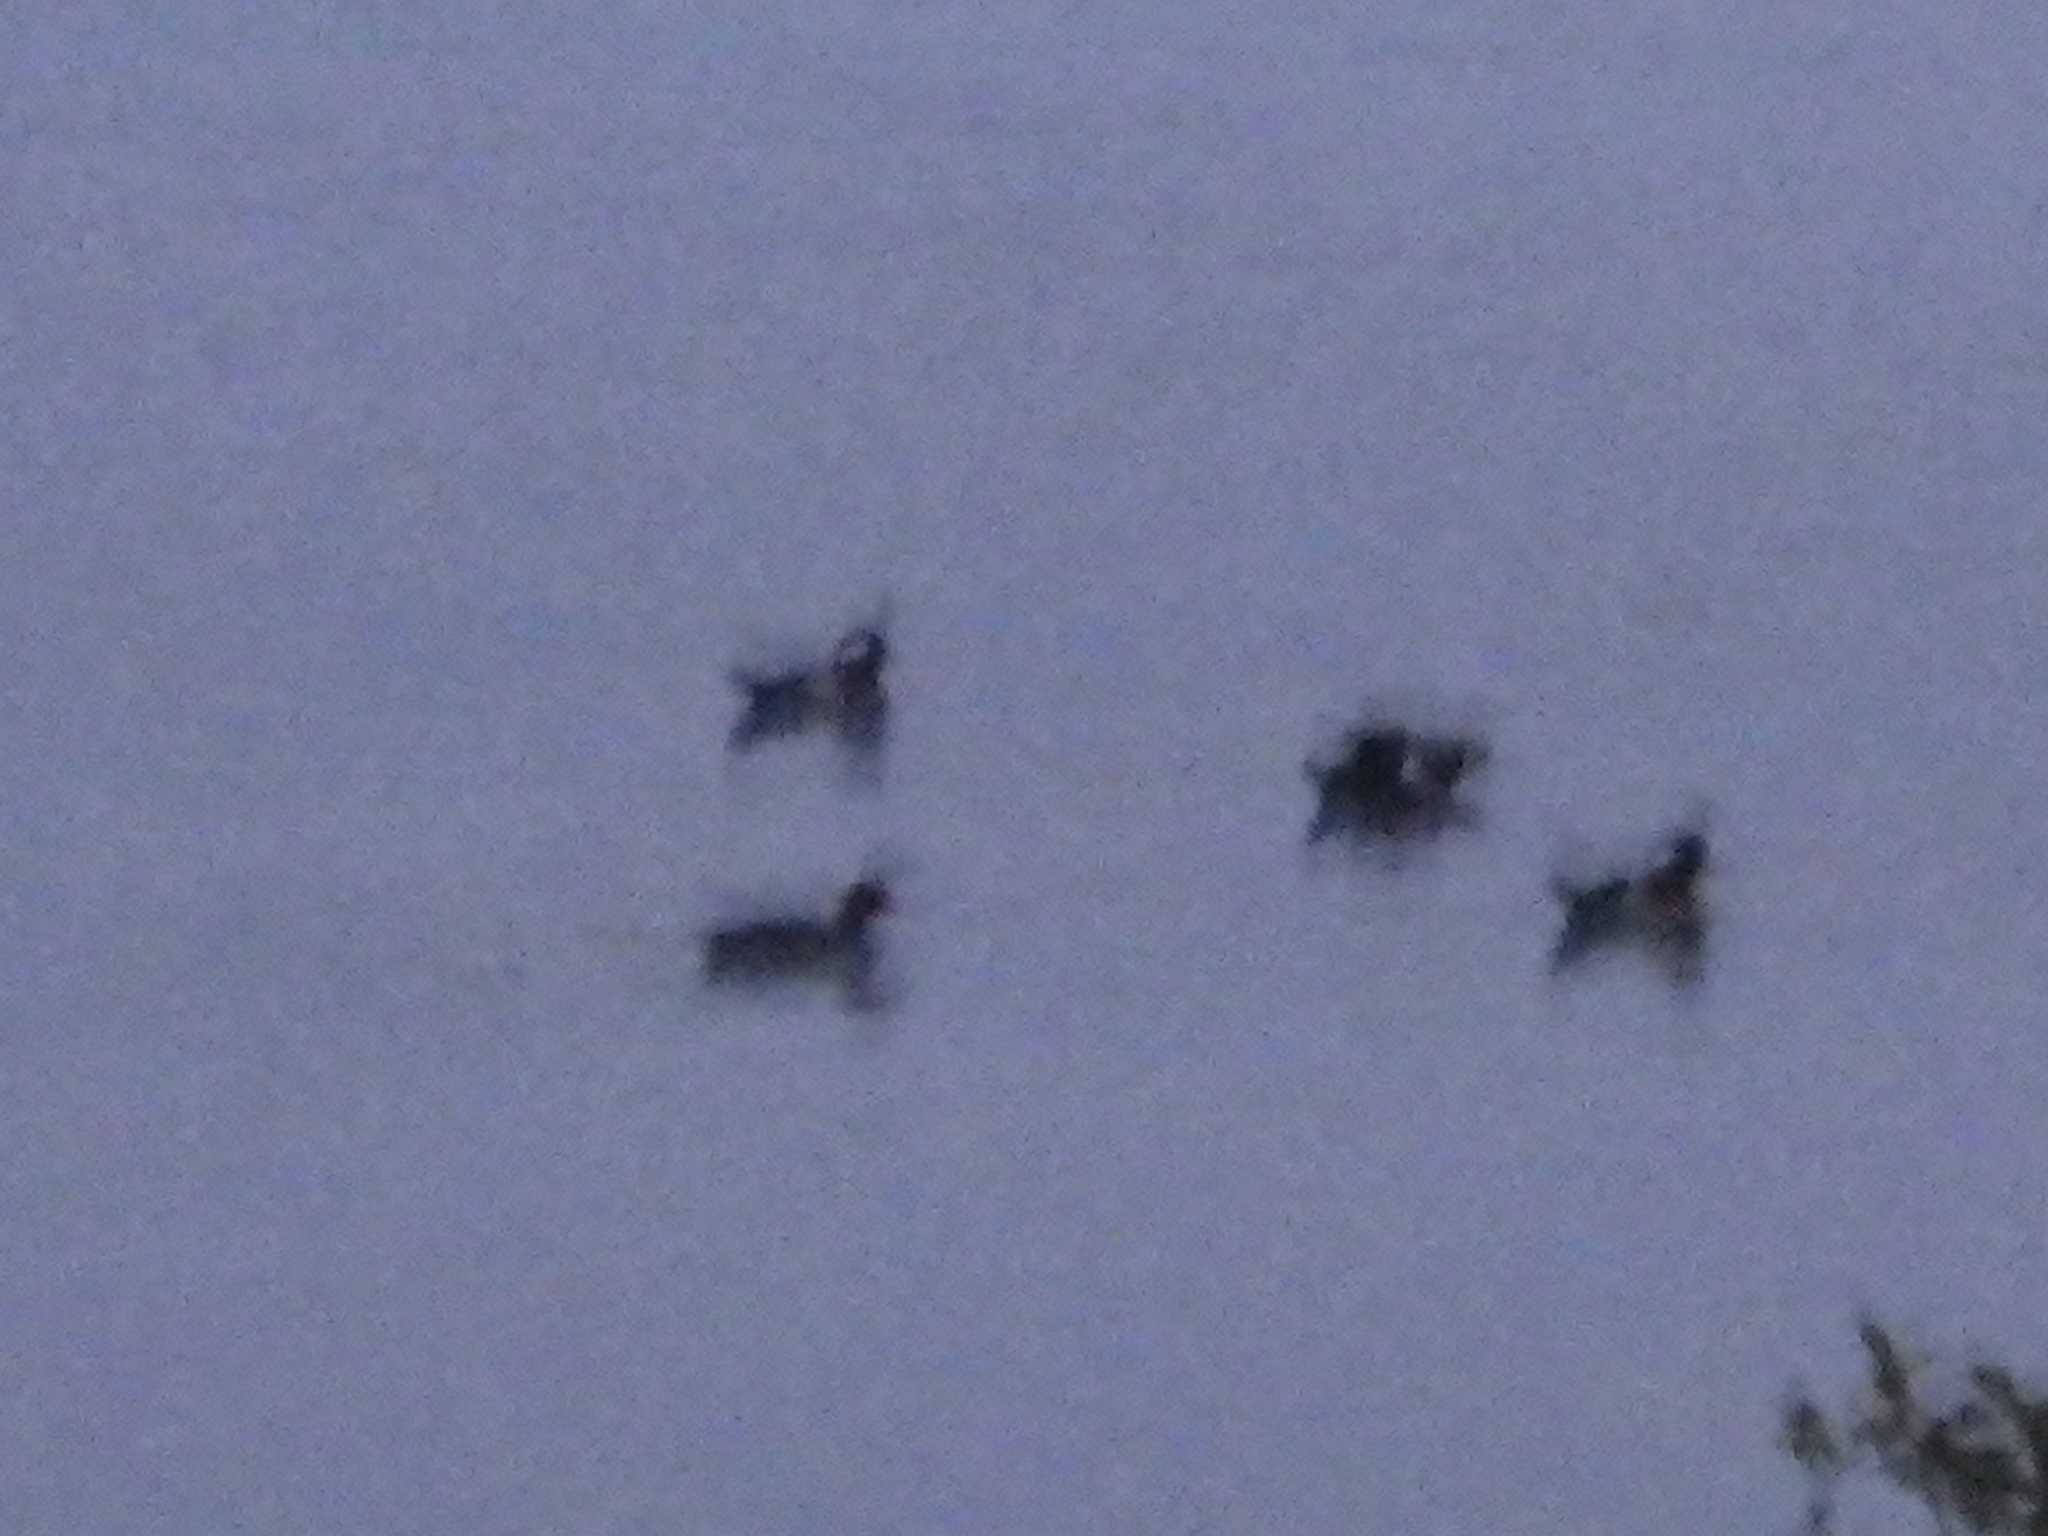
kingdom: Animalia
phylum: Chordata
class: Aves
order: Anseriformes
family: Anatidae
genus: Lophodytes
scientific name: Lophodytes cucullatus
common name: Hooded merganser
